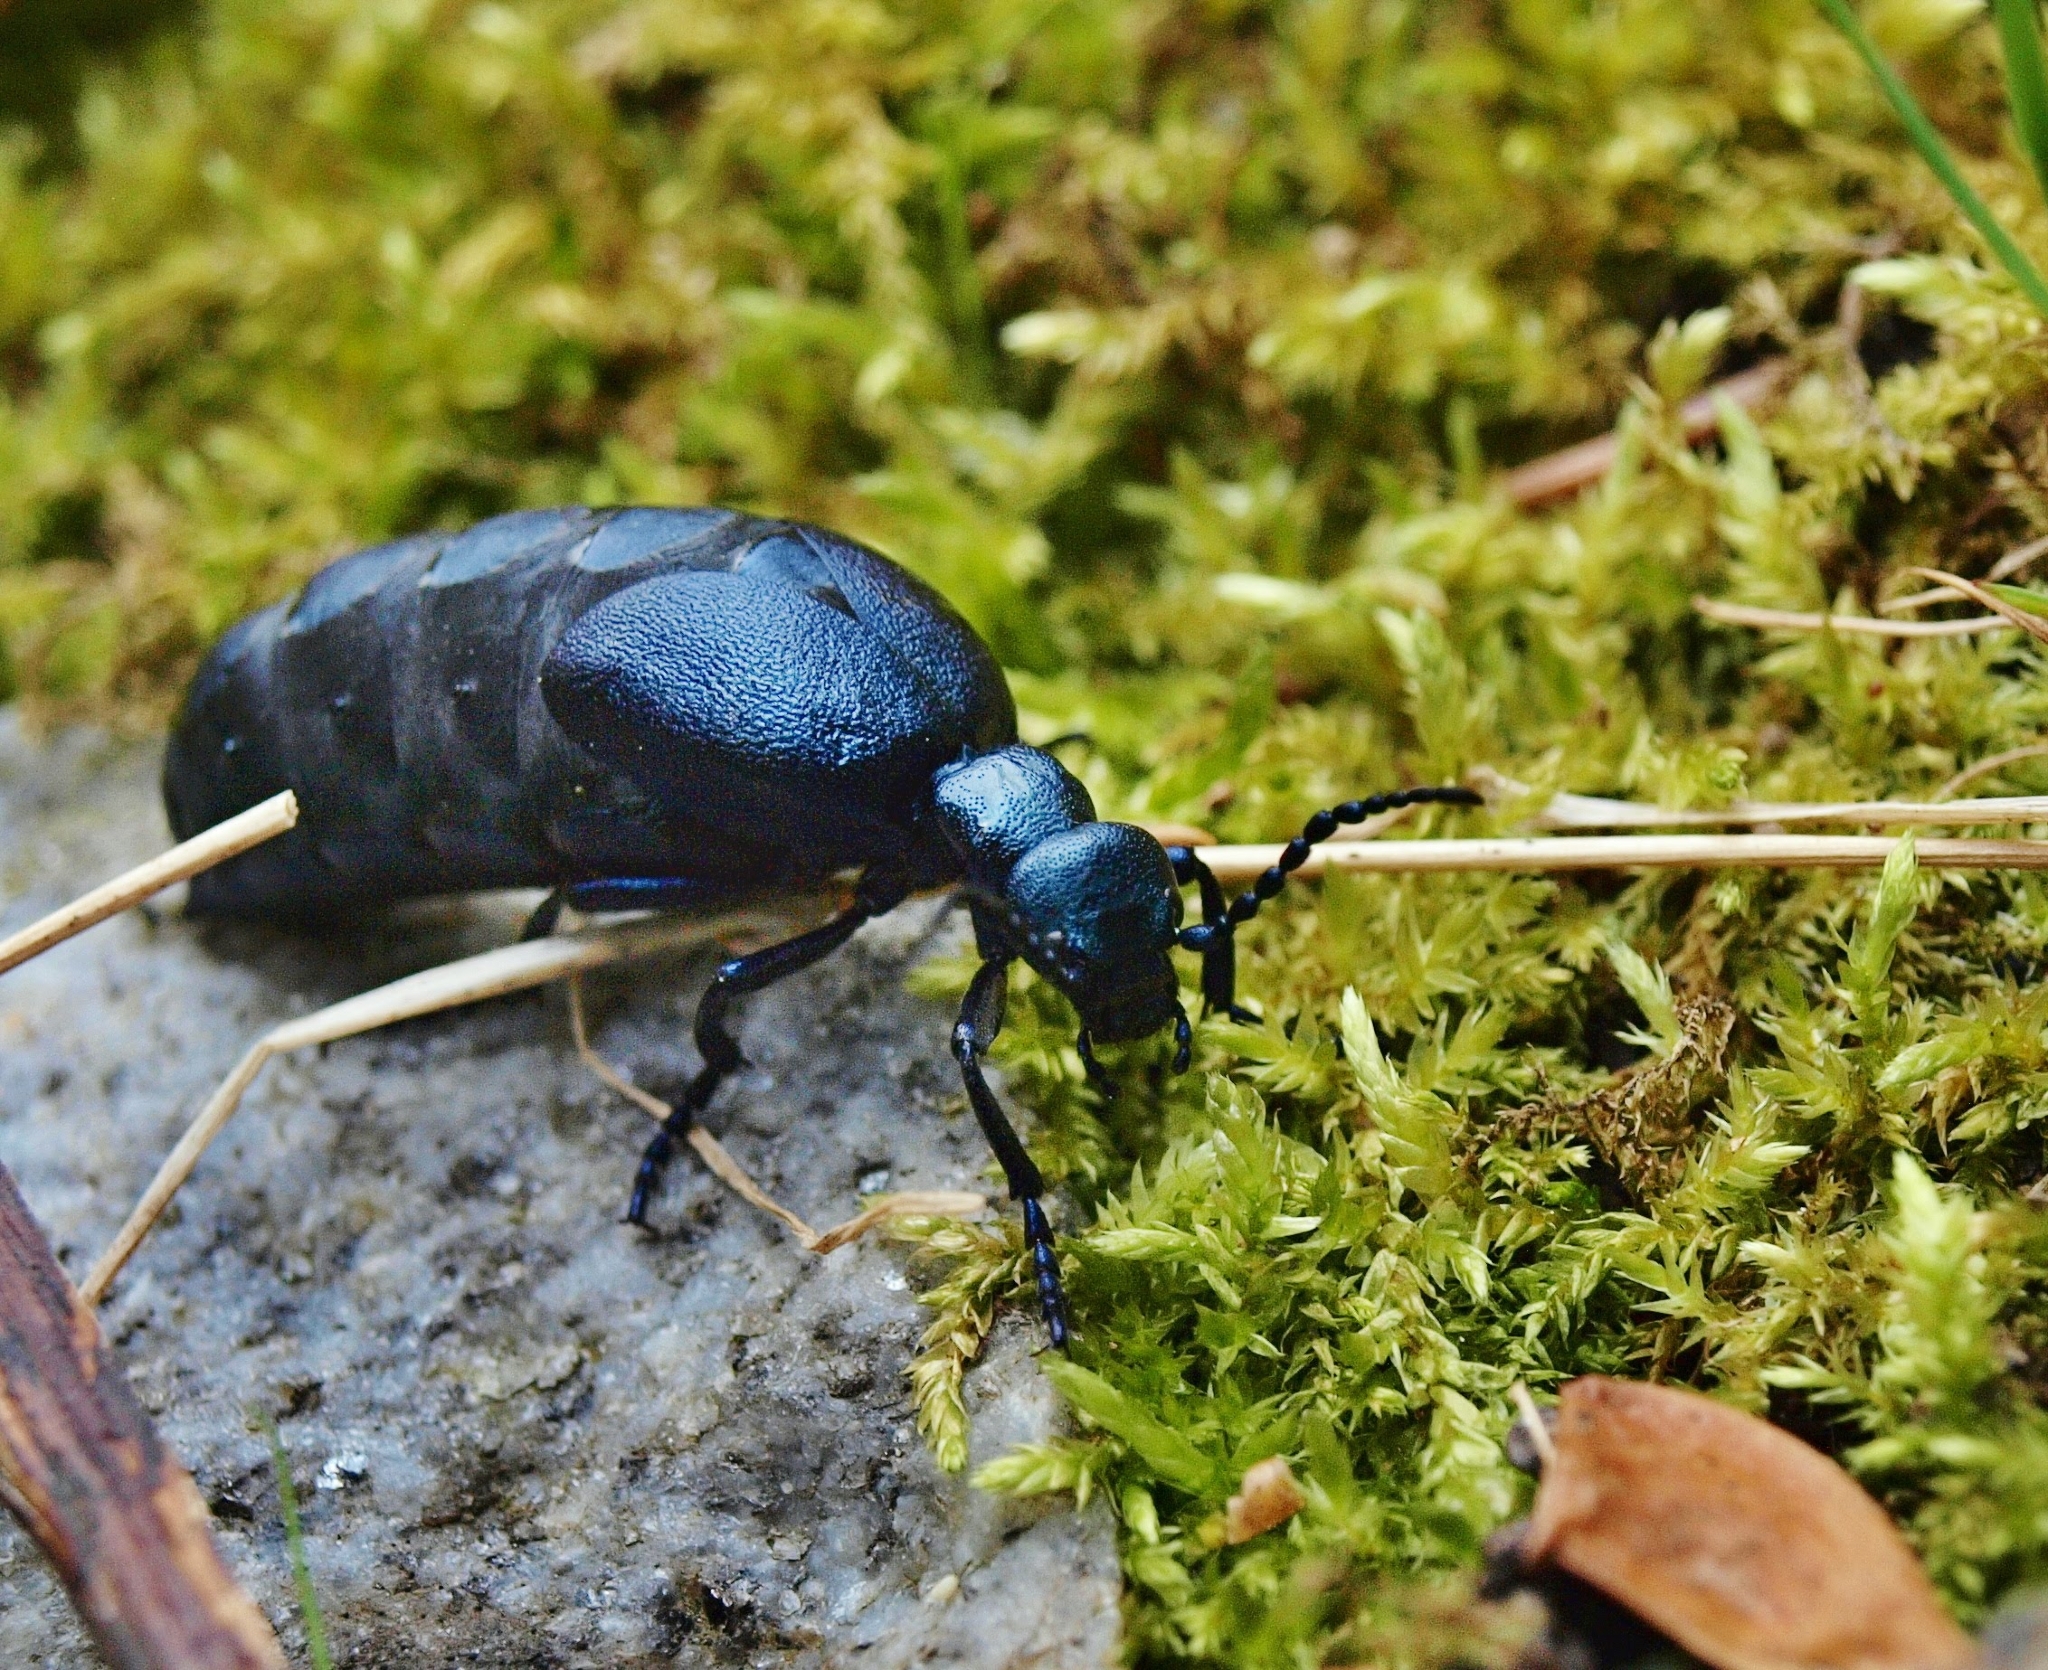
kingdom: Animalia
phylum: Arthropoda
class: Insecta
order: Coleoptera
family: Meloidae
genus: Meloe
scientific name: Meloe violaceus
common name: Violet oil-beetle
